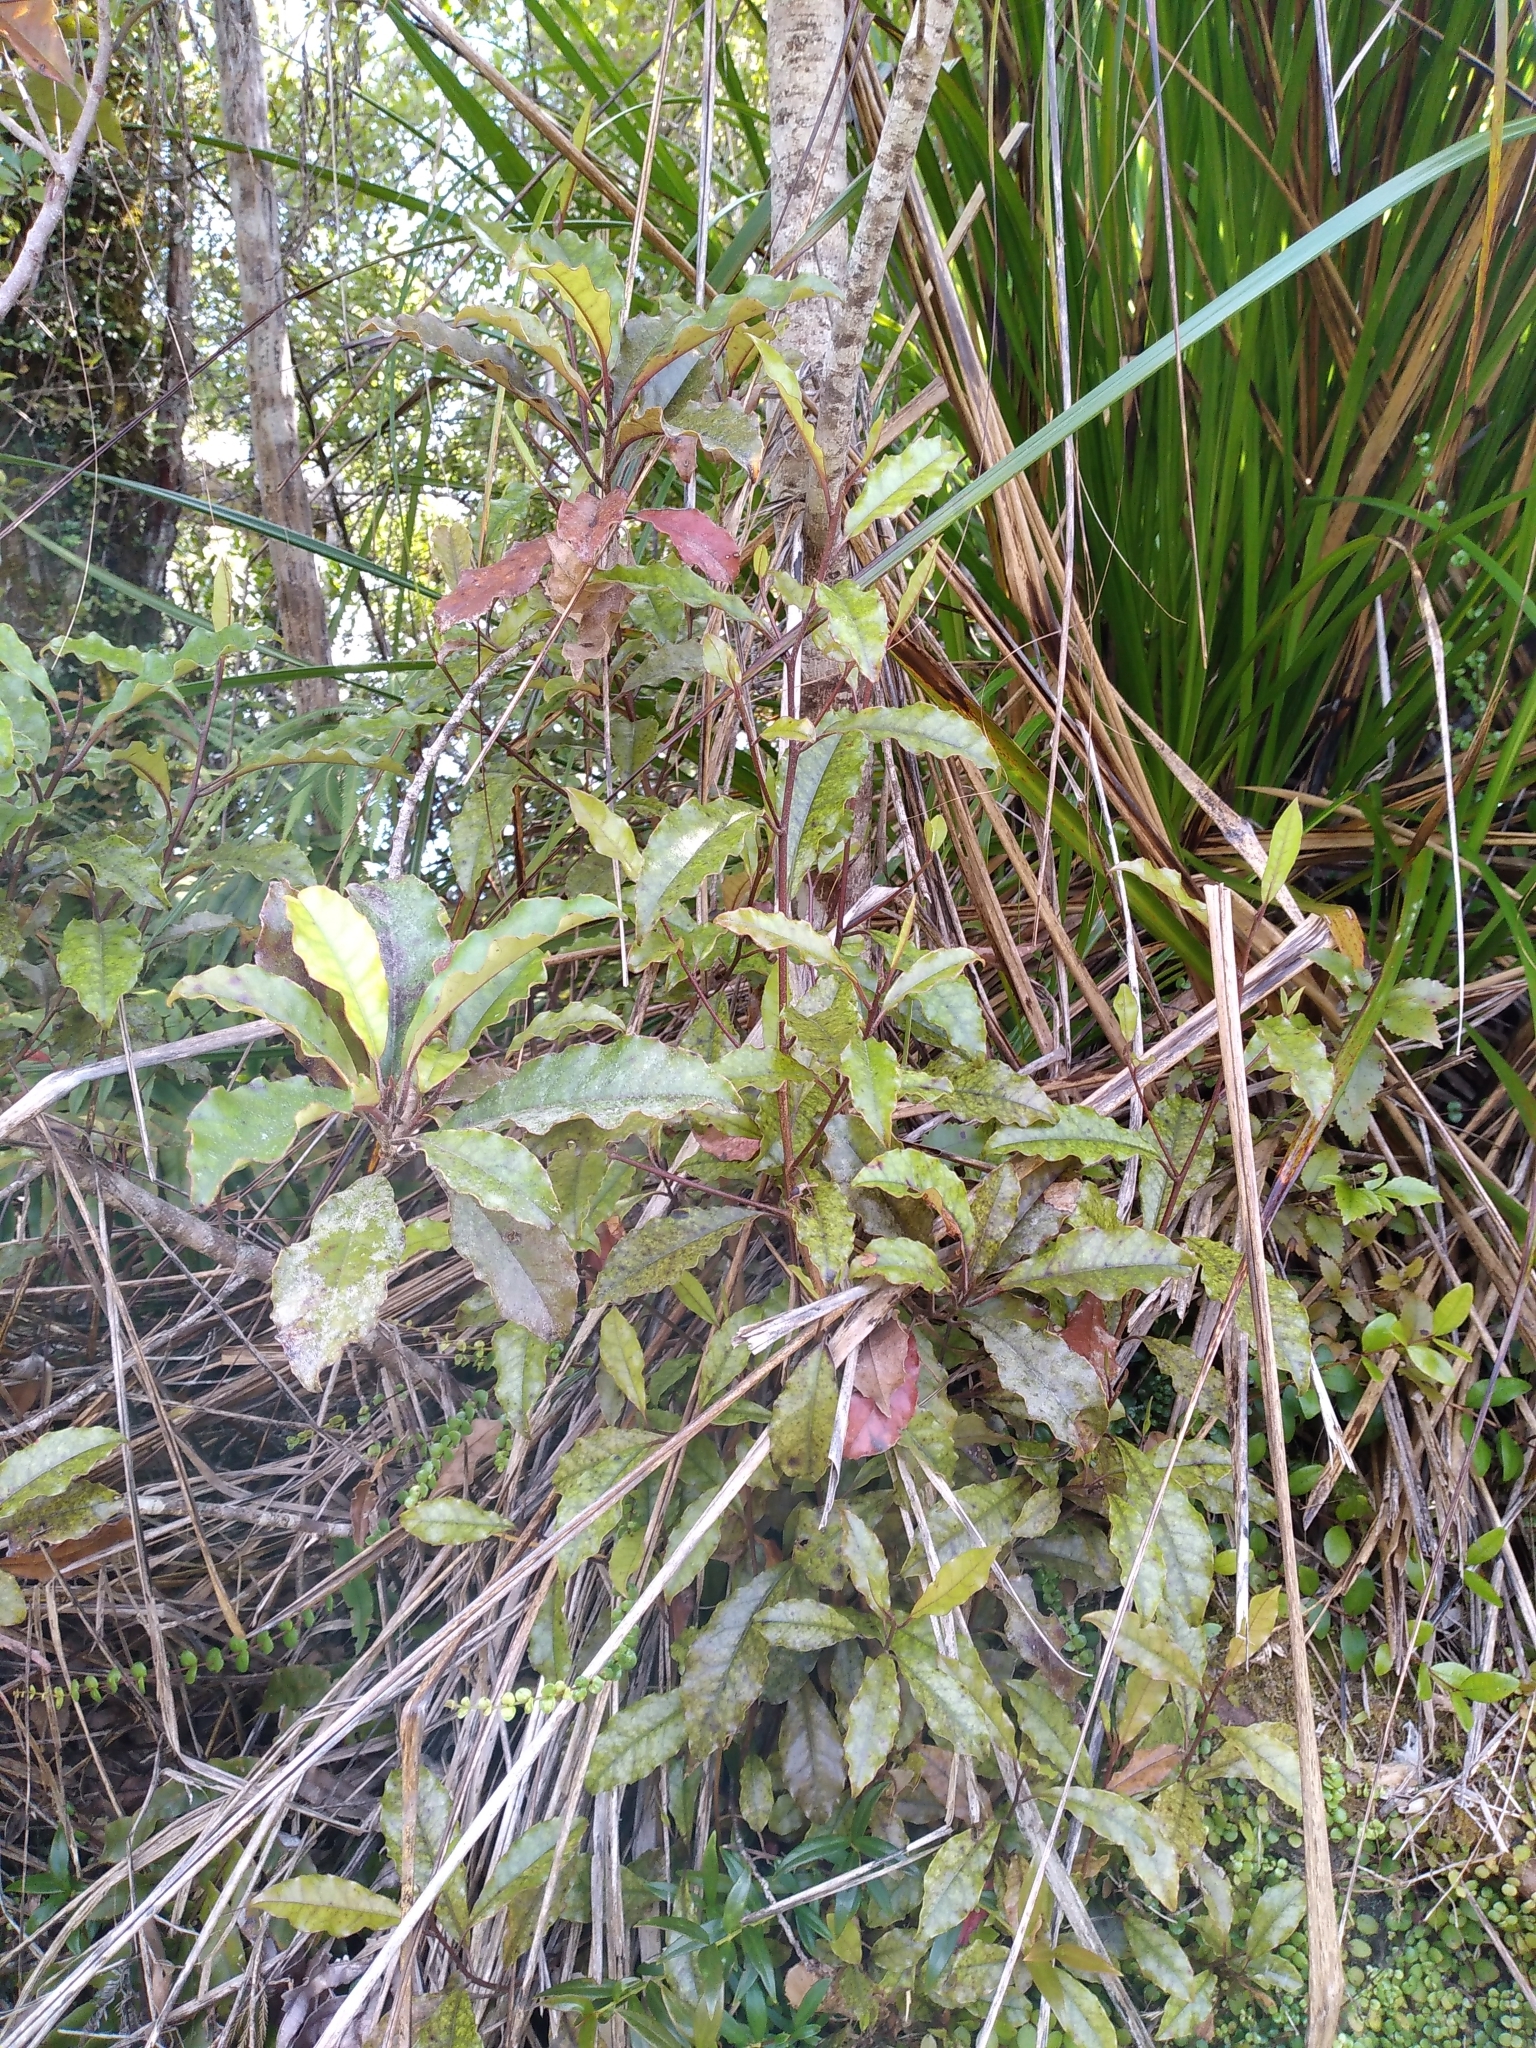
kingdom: Plantae
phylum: Tracheophyta
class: Magnoliopsida
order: Paracryphiales
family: Paracryphiaceae
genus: Quintinia
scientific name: Quintinia serrata
